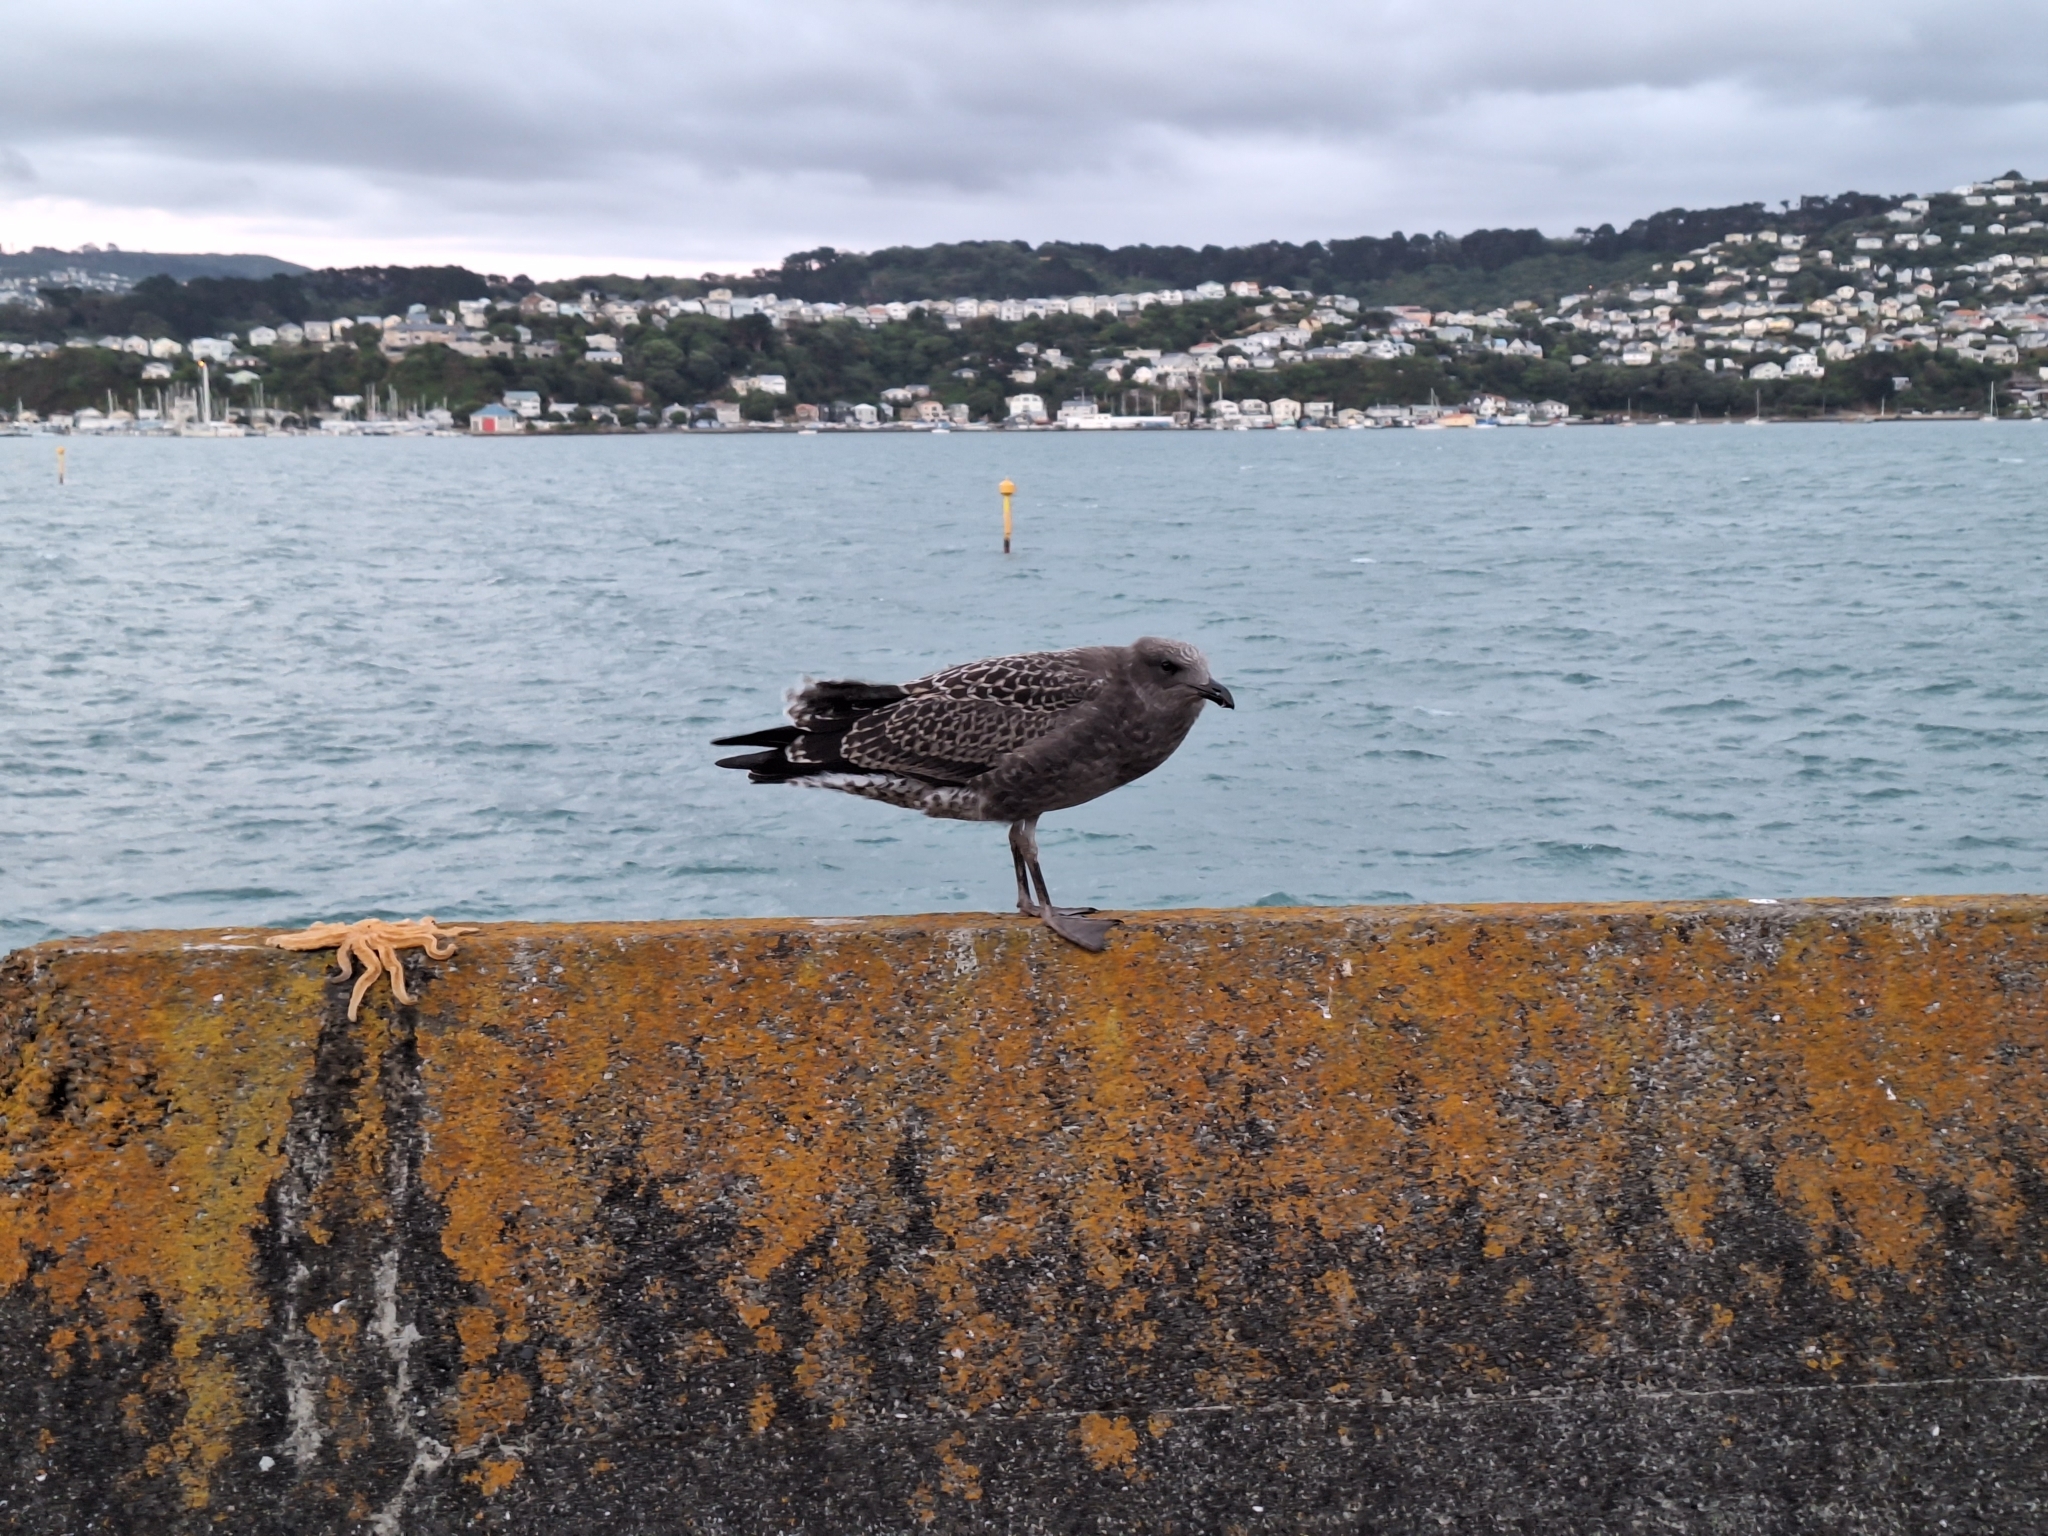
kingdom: Animalia
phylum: Chordata
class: Aves
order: Charadriiformes
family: Laridae
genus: Larus
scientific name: Larus dominicanus
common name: Kelp gull
